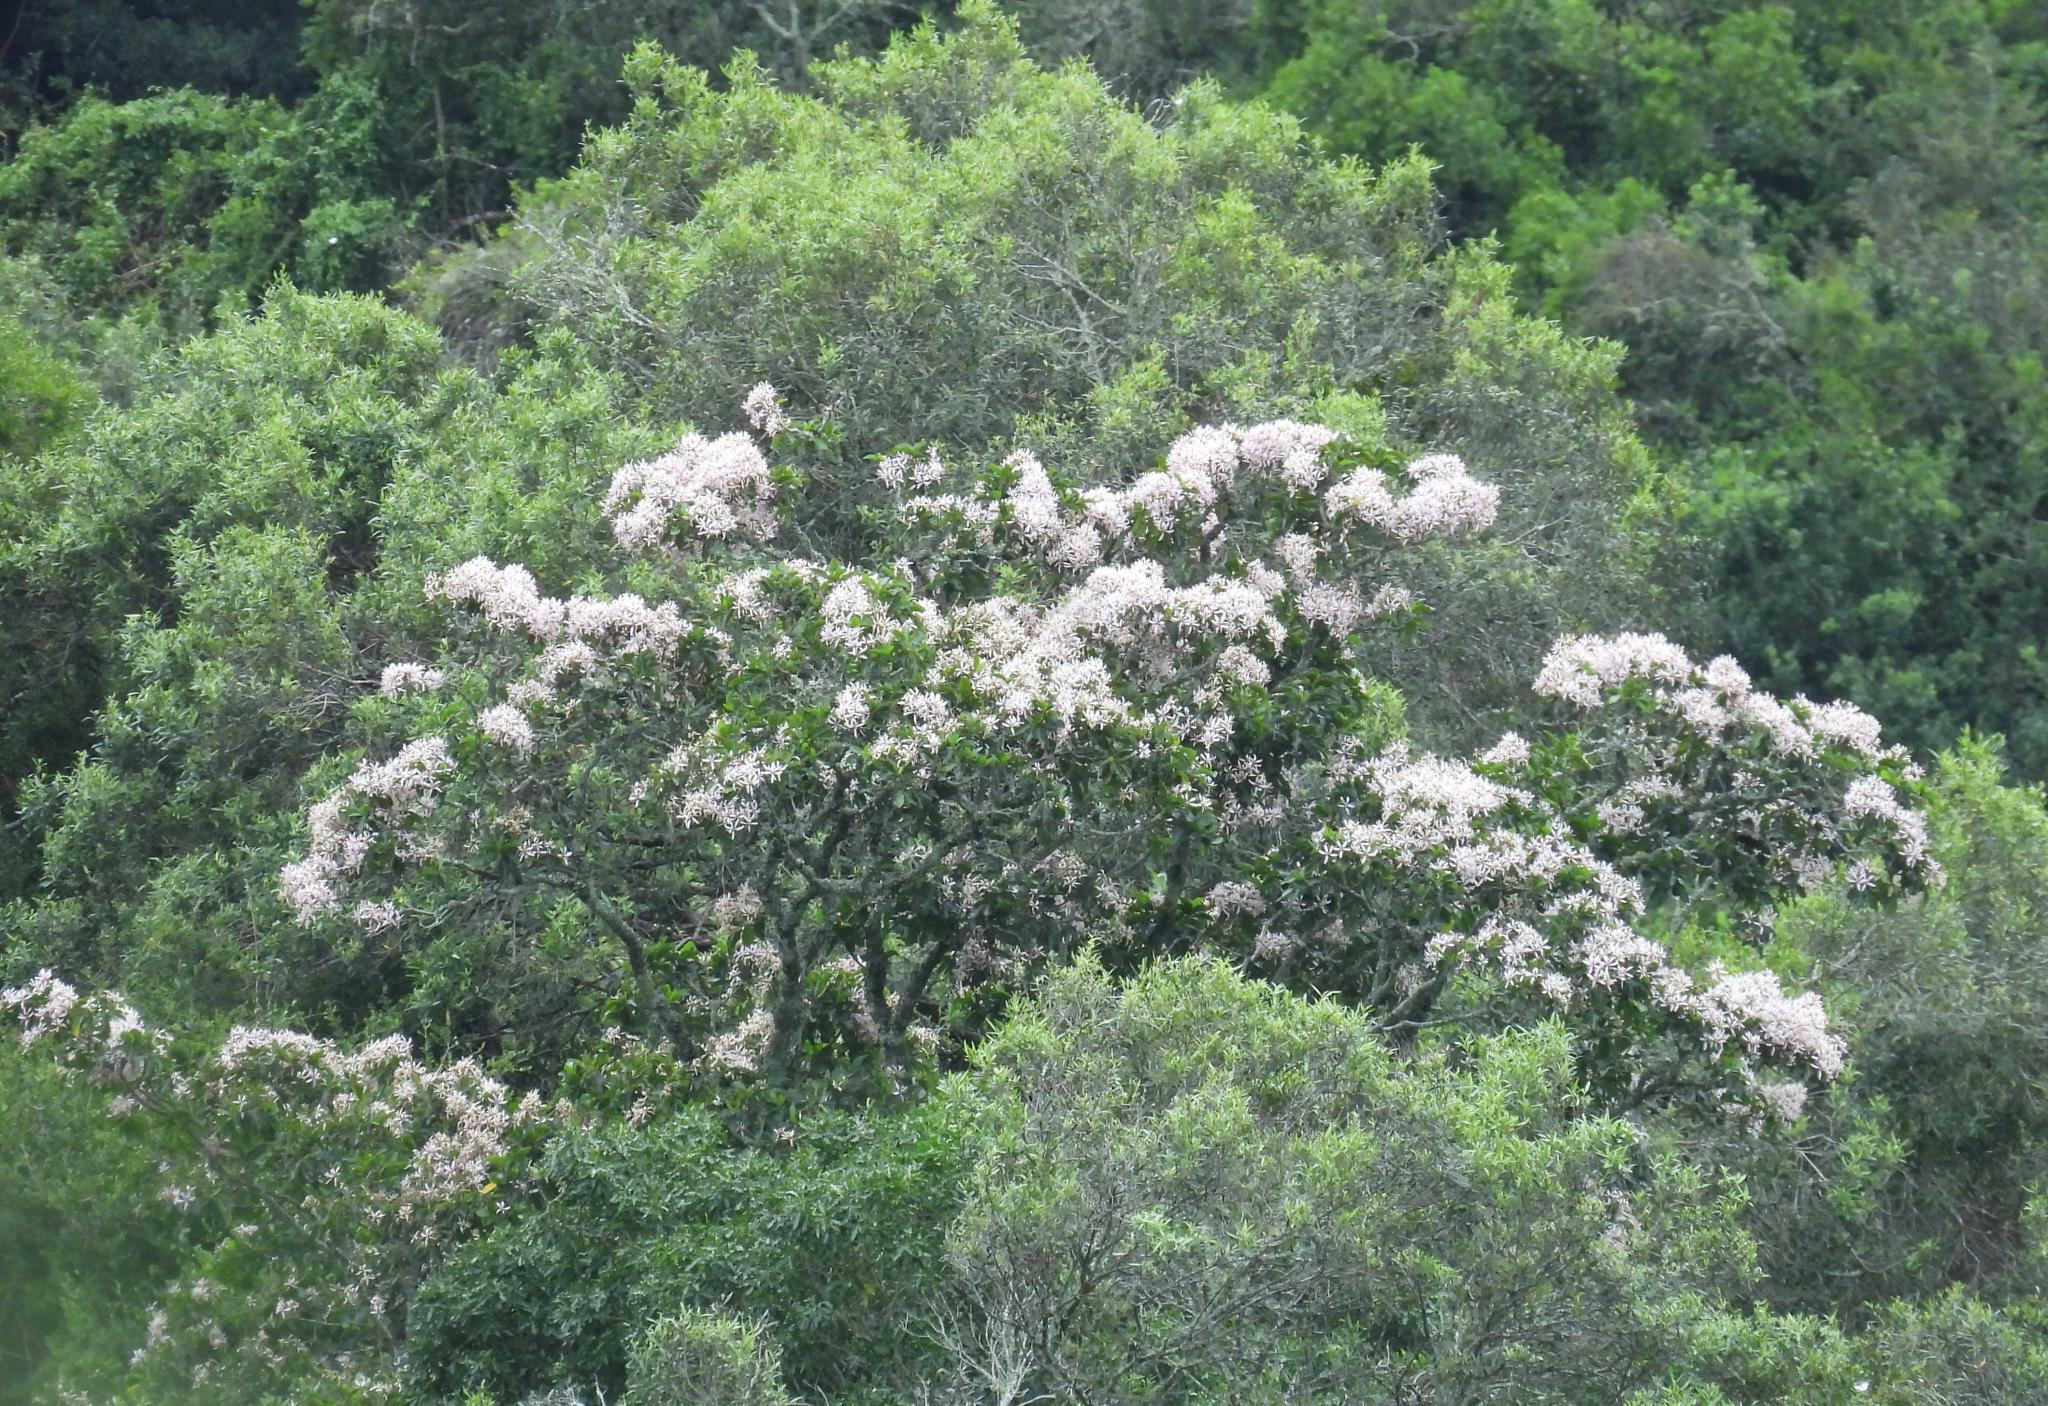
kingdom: Plantae
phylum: Tracheophyta
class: Magnoliopsida
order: Sapindales
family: Rutaceae
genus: Calodendrum
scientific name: Calodendrum capense
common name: Cape chestnut
